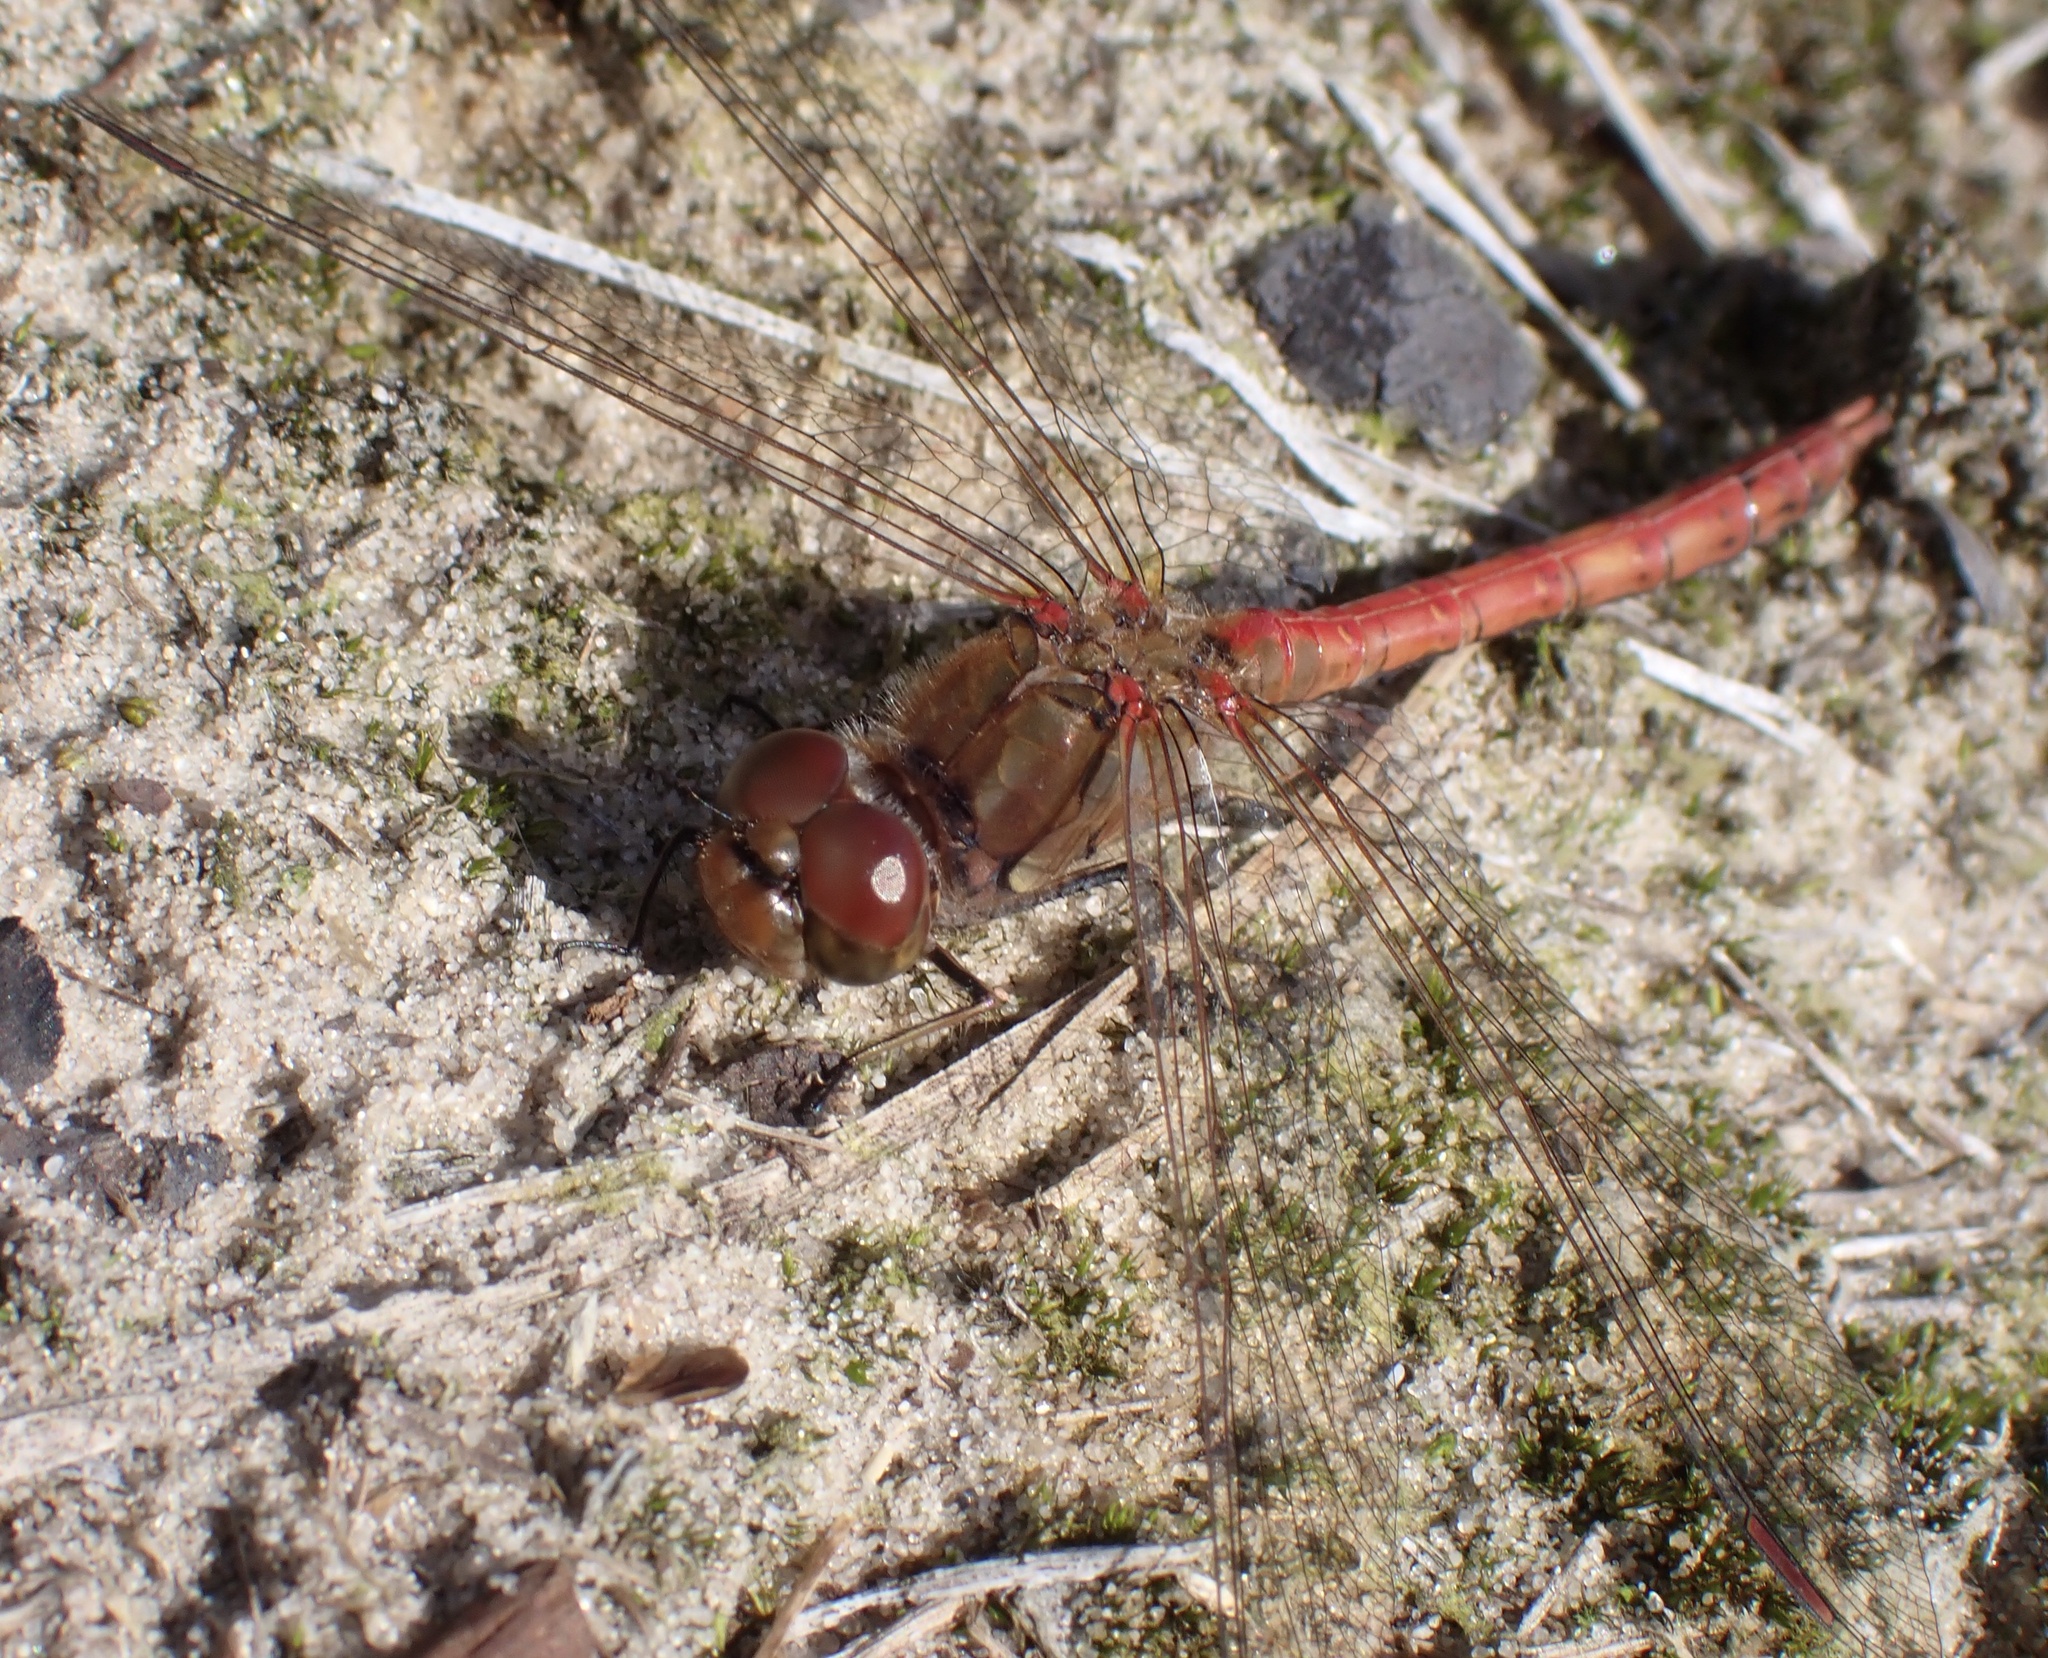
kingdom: Animalia
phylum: Arthropoda
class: Insecta
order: Odonata
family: Libellulidae
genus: Sympetrum
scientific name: Sympetrum striolatum
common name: Common darter
